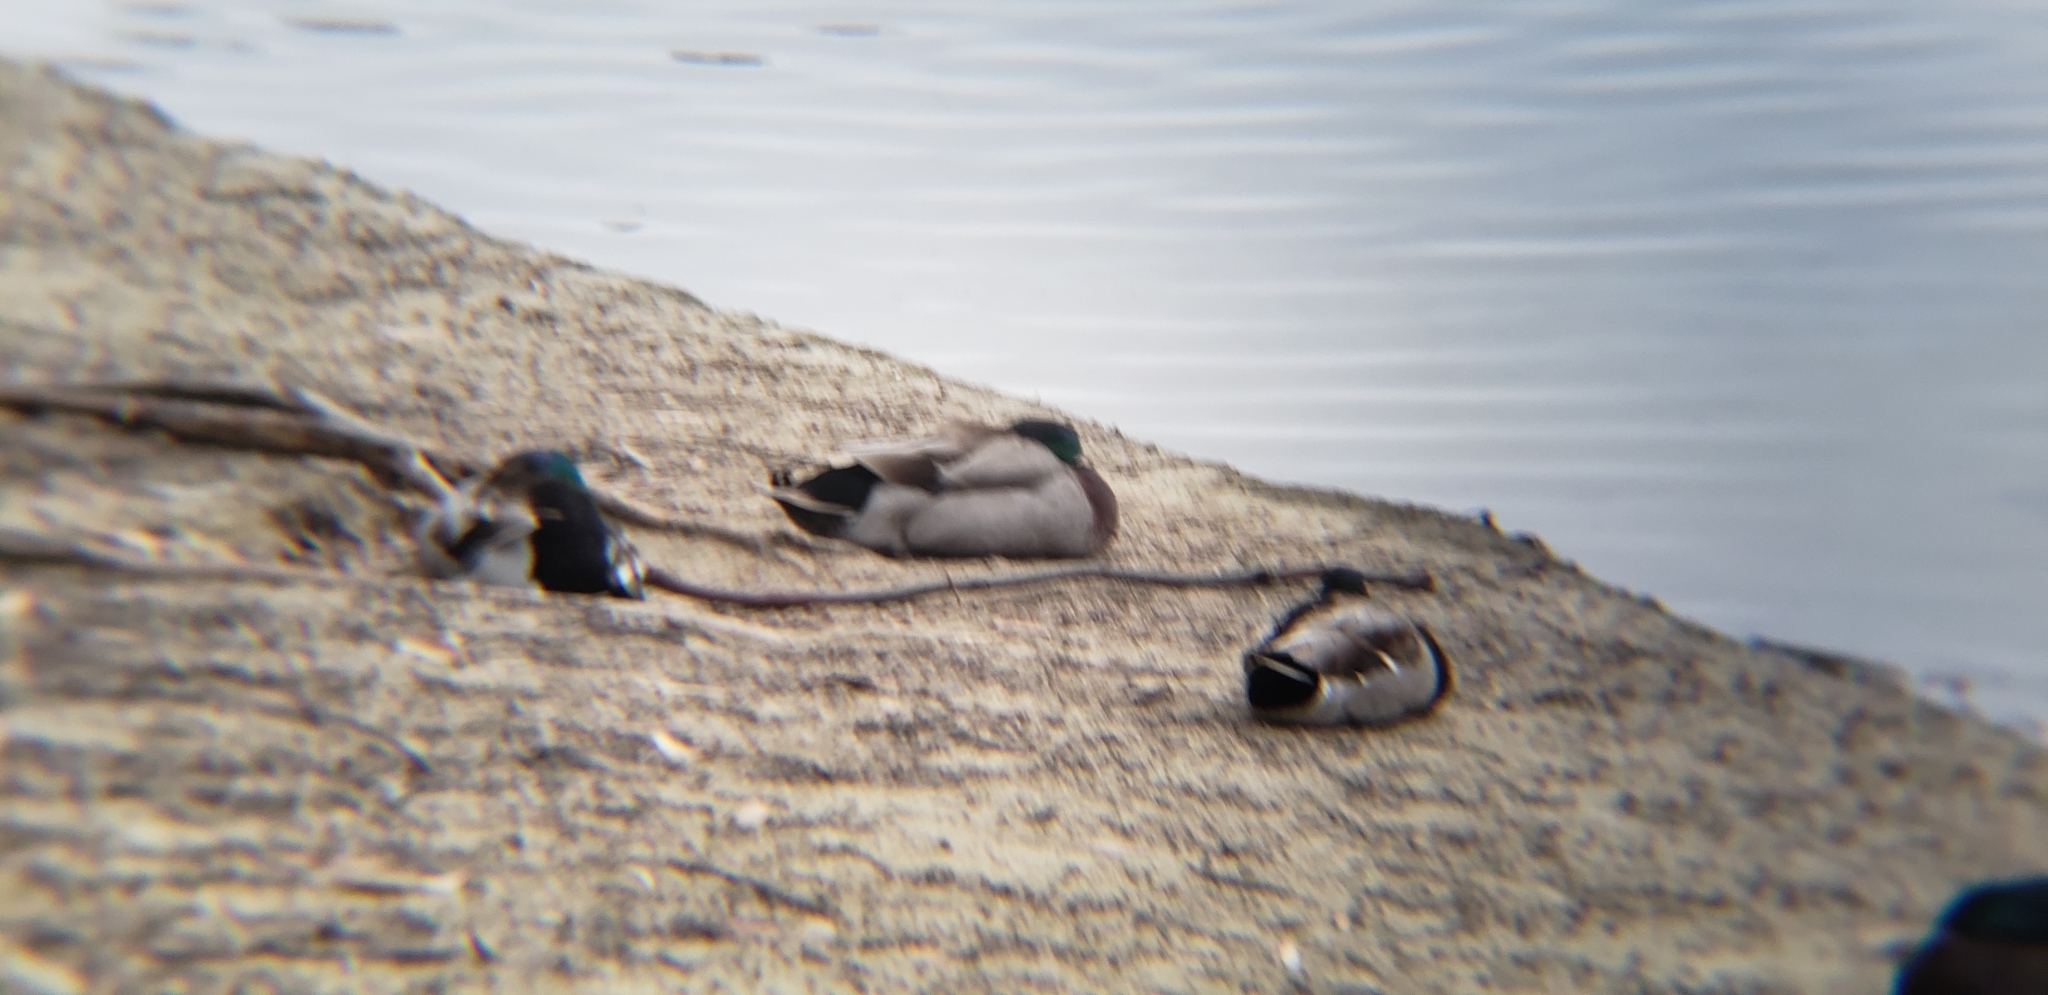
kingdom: Animalia
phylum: Chordata
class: Aves
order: Anseriformes
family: Anatidae
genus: Anas
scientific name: Anas platyrhynchos
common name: Mallard
